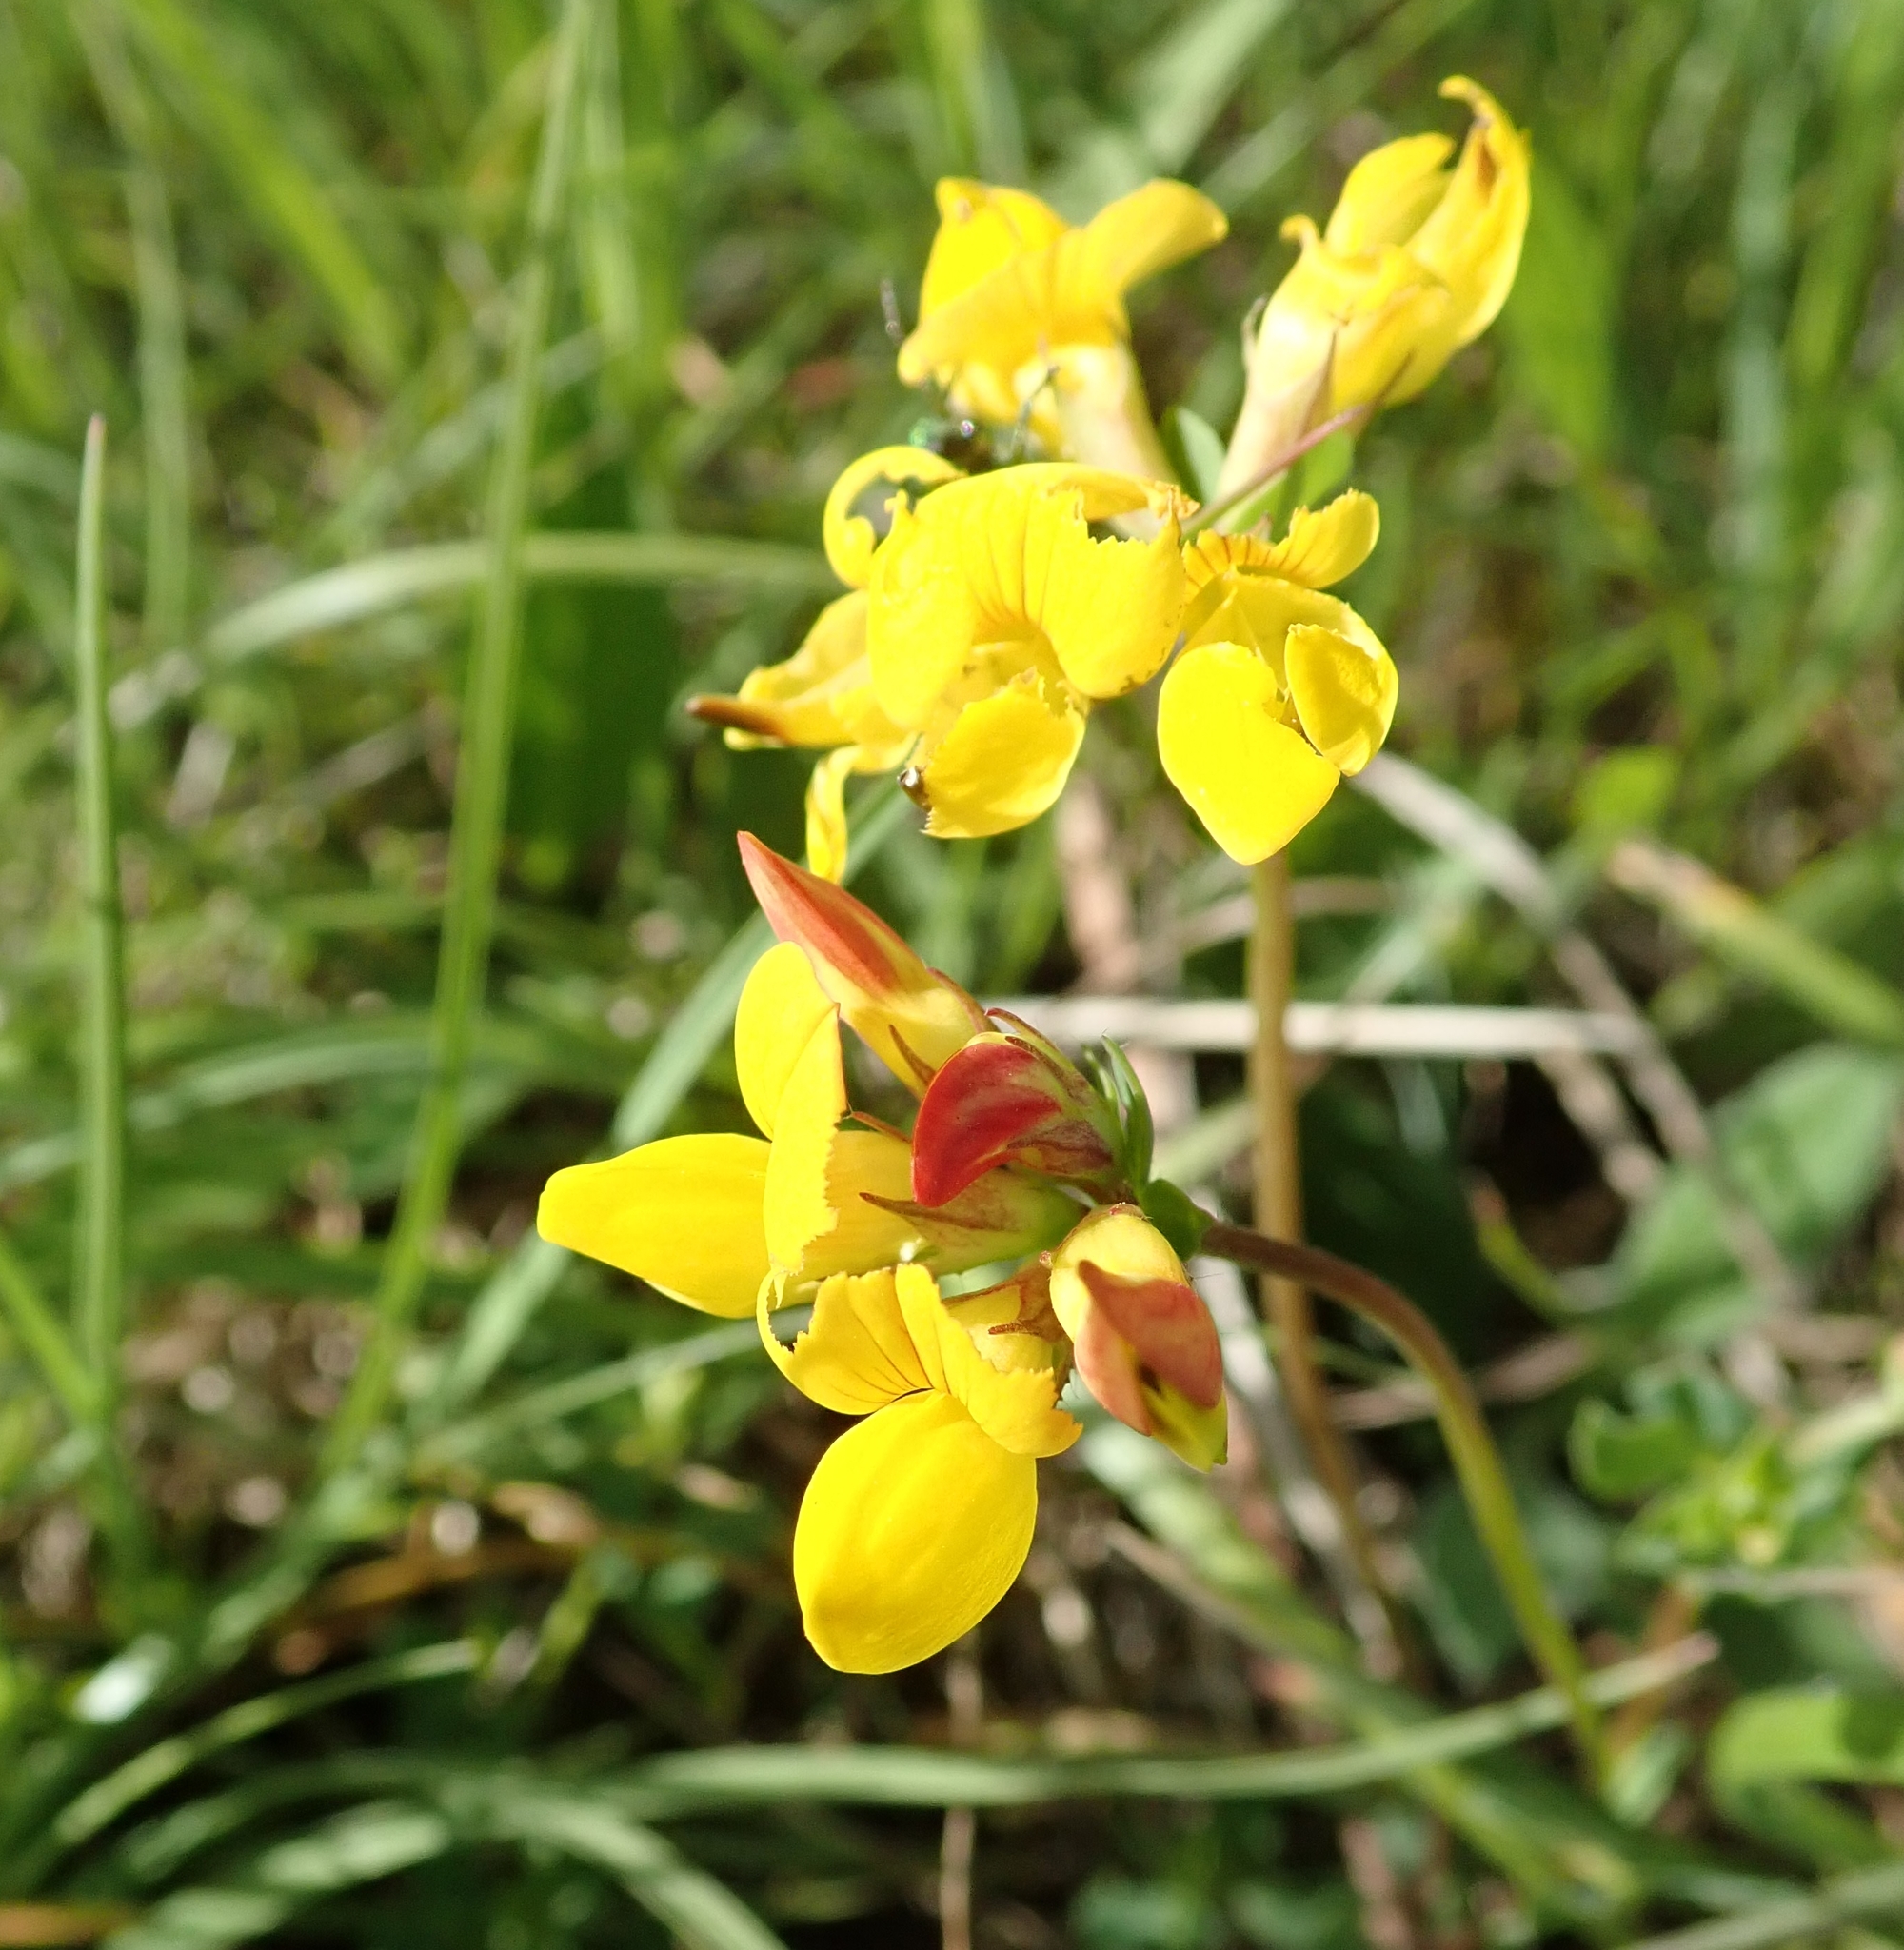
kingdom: Plantae
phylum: Tracheophyta
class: Magnoliopsida
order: Fabales
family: Fabaceae
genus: Lotus
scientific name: Lotus corniculatus
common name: Common bird's-foot-trefoil
